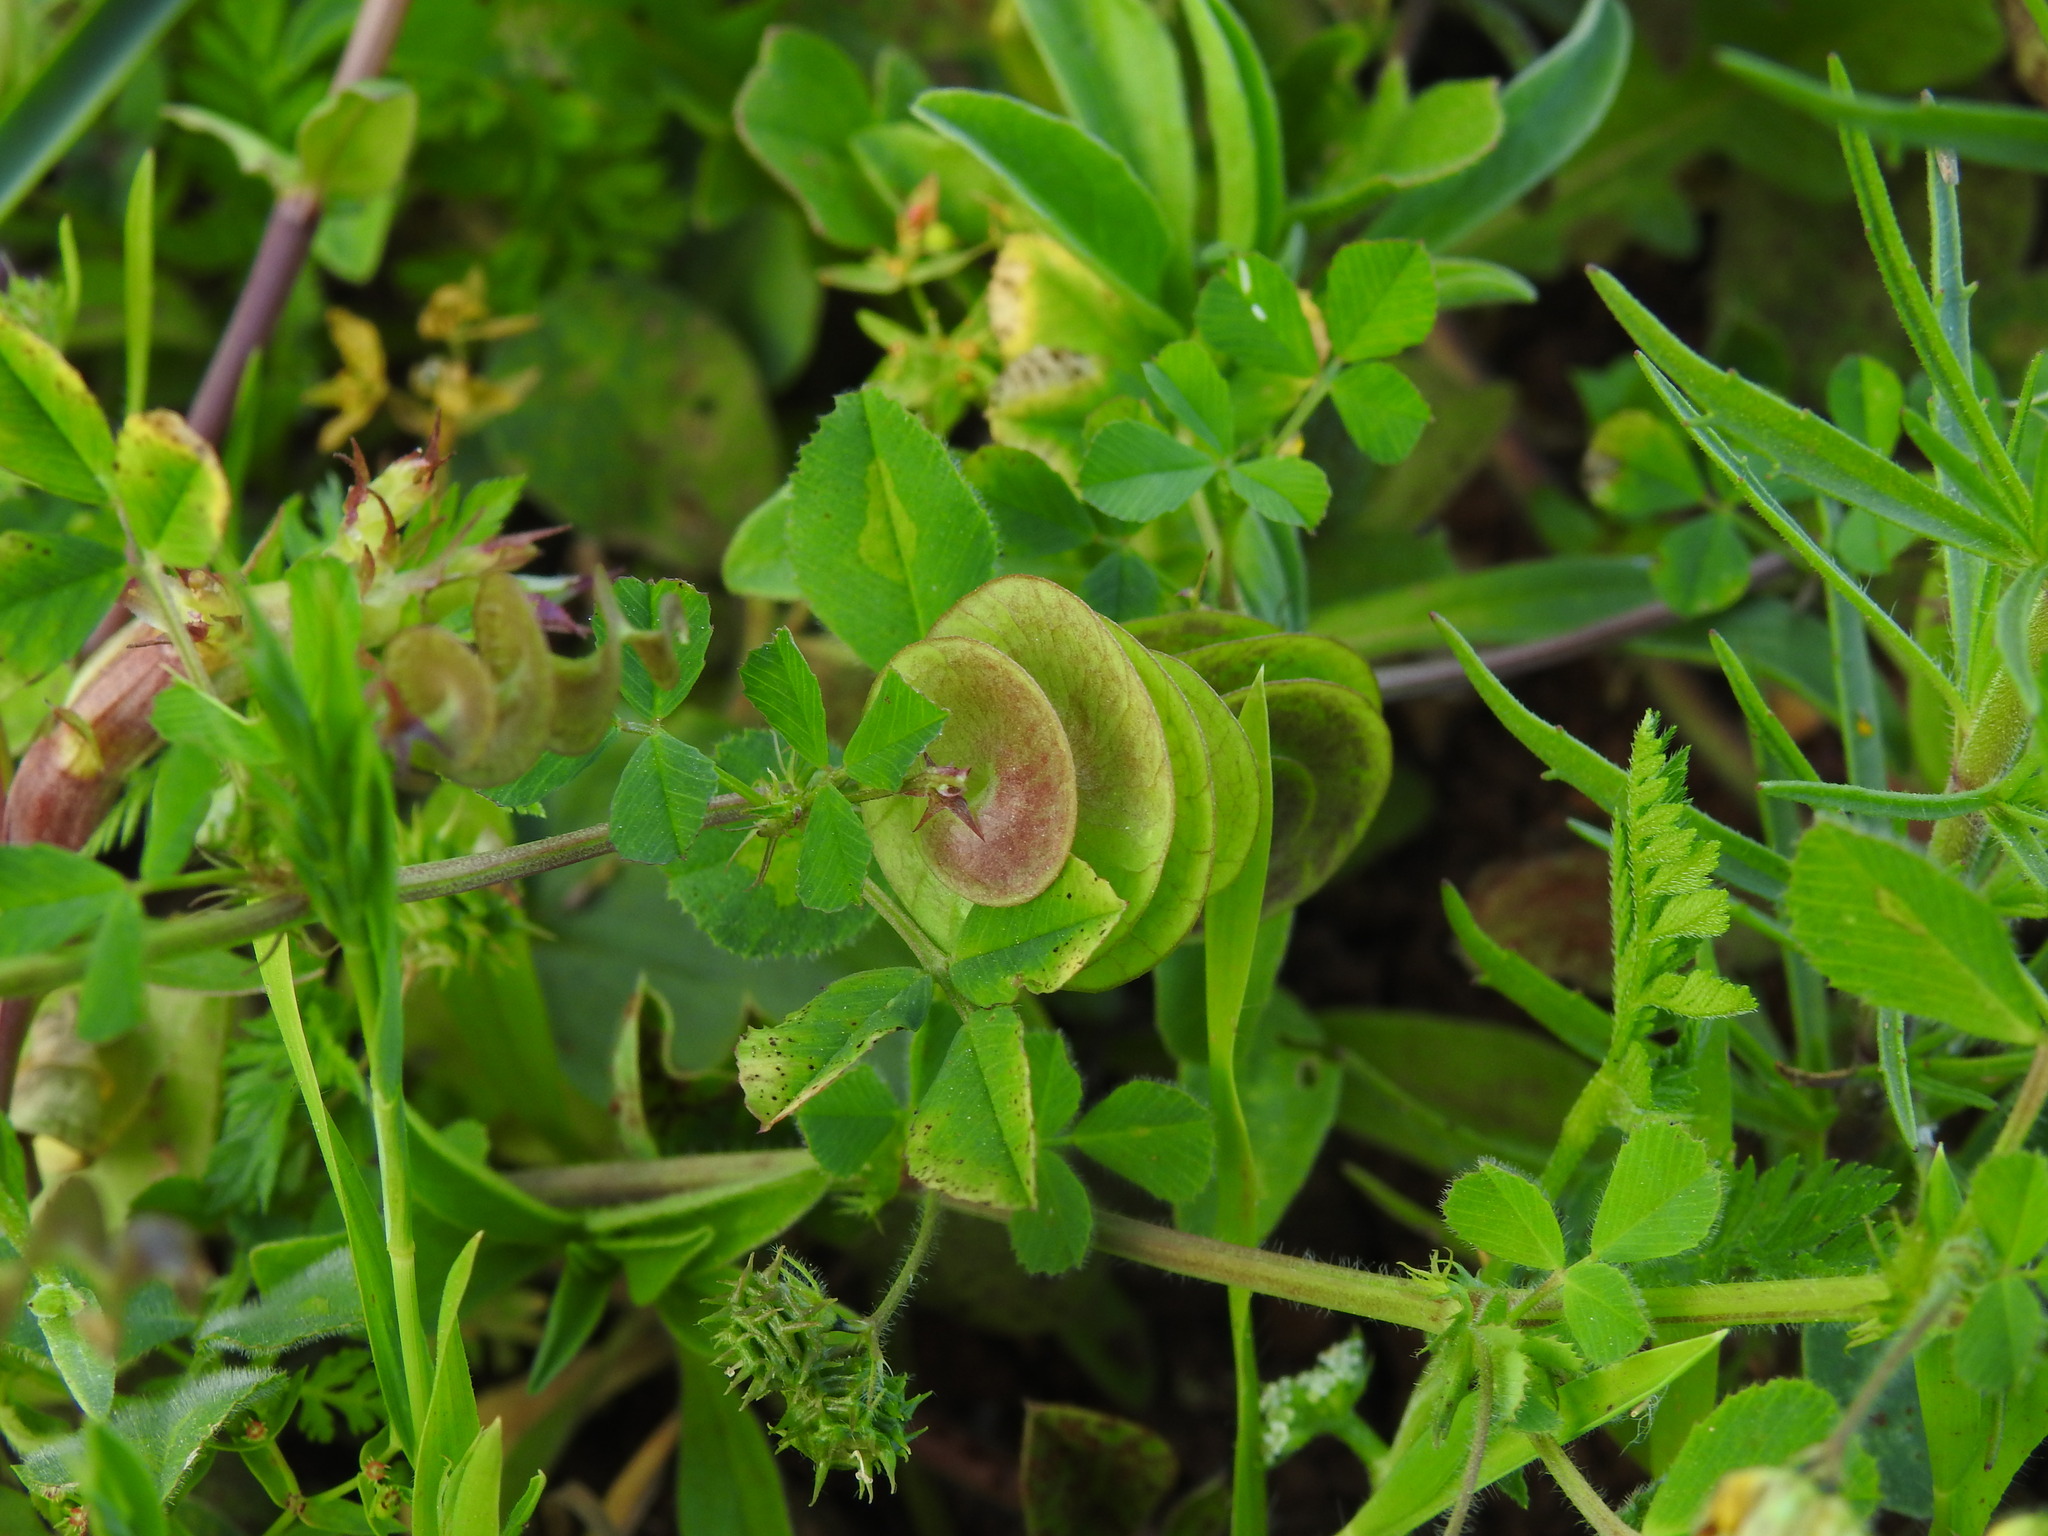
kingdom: Plantae
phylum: Tracheophyta
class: Magnoliopsida
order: Fabales
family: Fabaceae
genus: Medicago
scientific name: Medicago orbicularis
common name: Button medick
